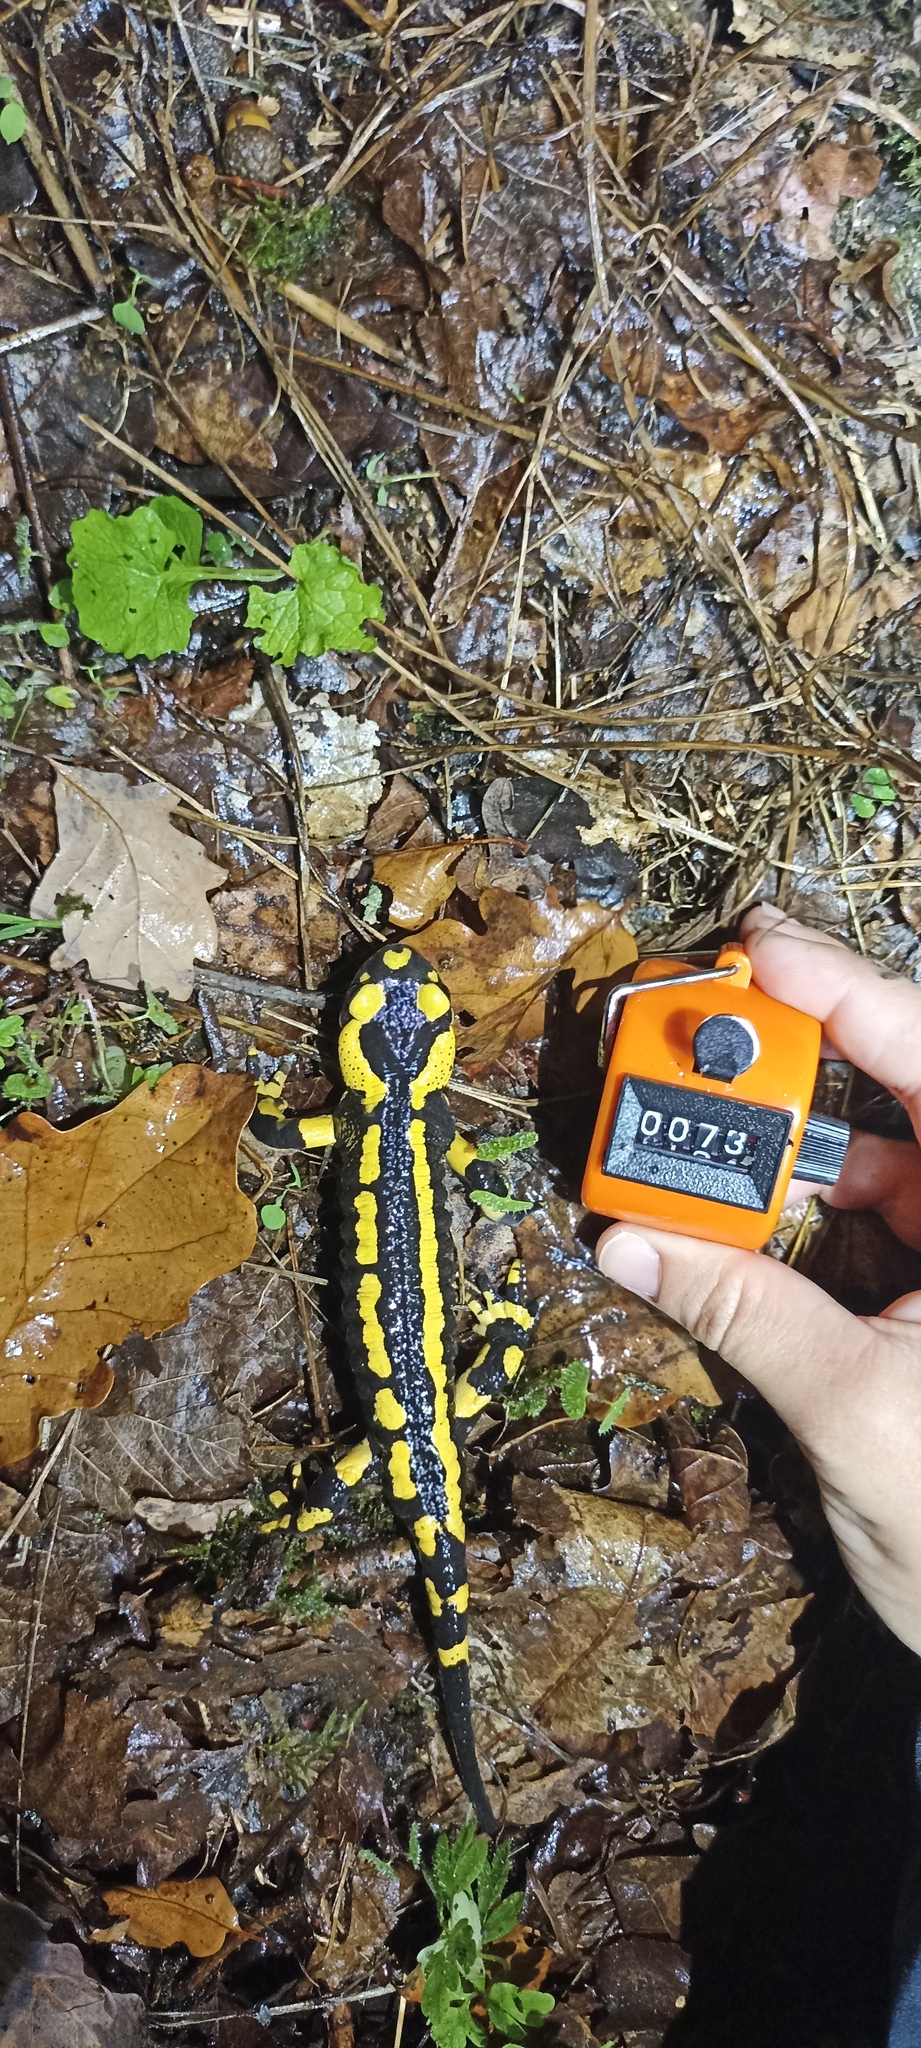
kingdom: Animalia
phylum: Chordata
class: Amphibia
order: Caudata
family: Salamandridae
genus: Salamandra
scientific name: Salamandra salamandra
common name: Fire salamander
